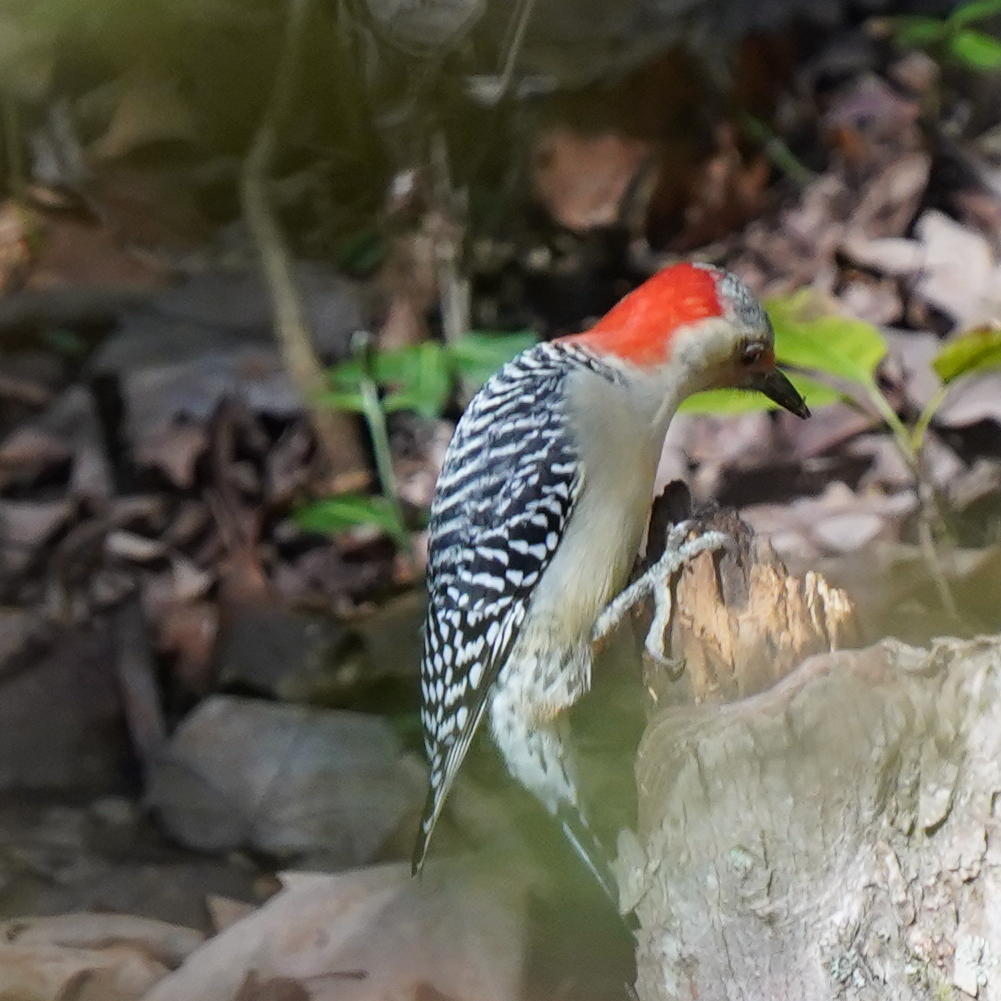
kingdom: Animalia
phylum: Chordata
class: Aves
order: Piciformes
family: Picidae
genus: Melanerpes
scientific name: Melanerpes carolinus
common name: Red-bellied woodpecker
